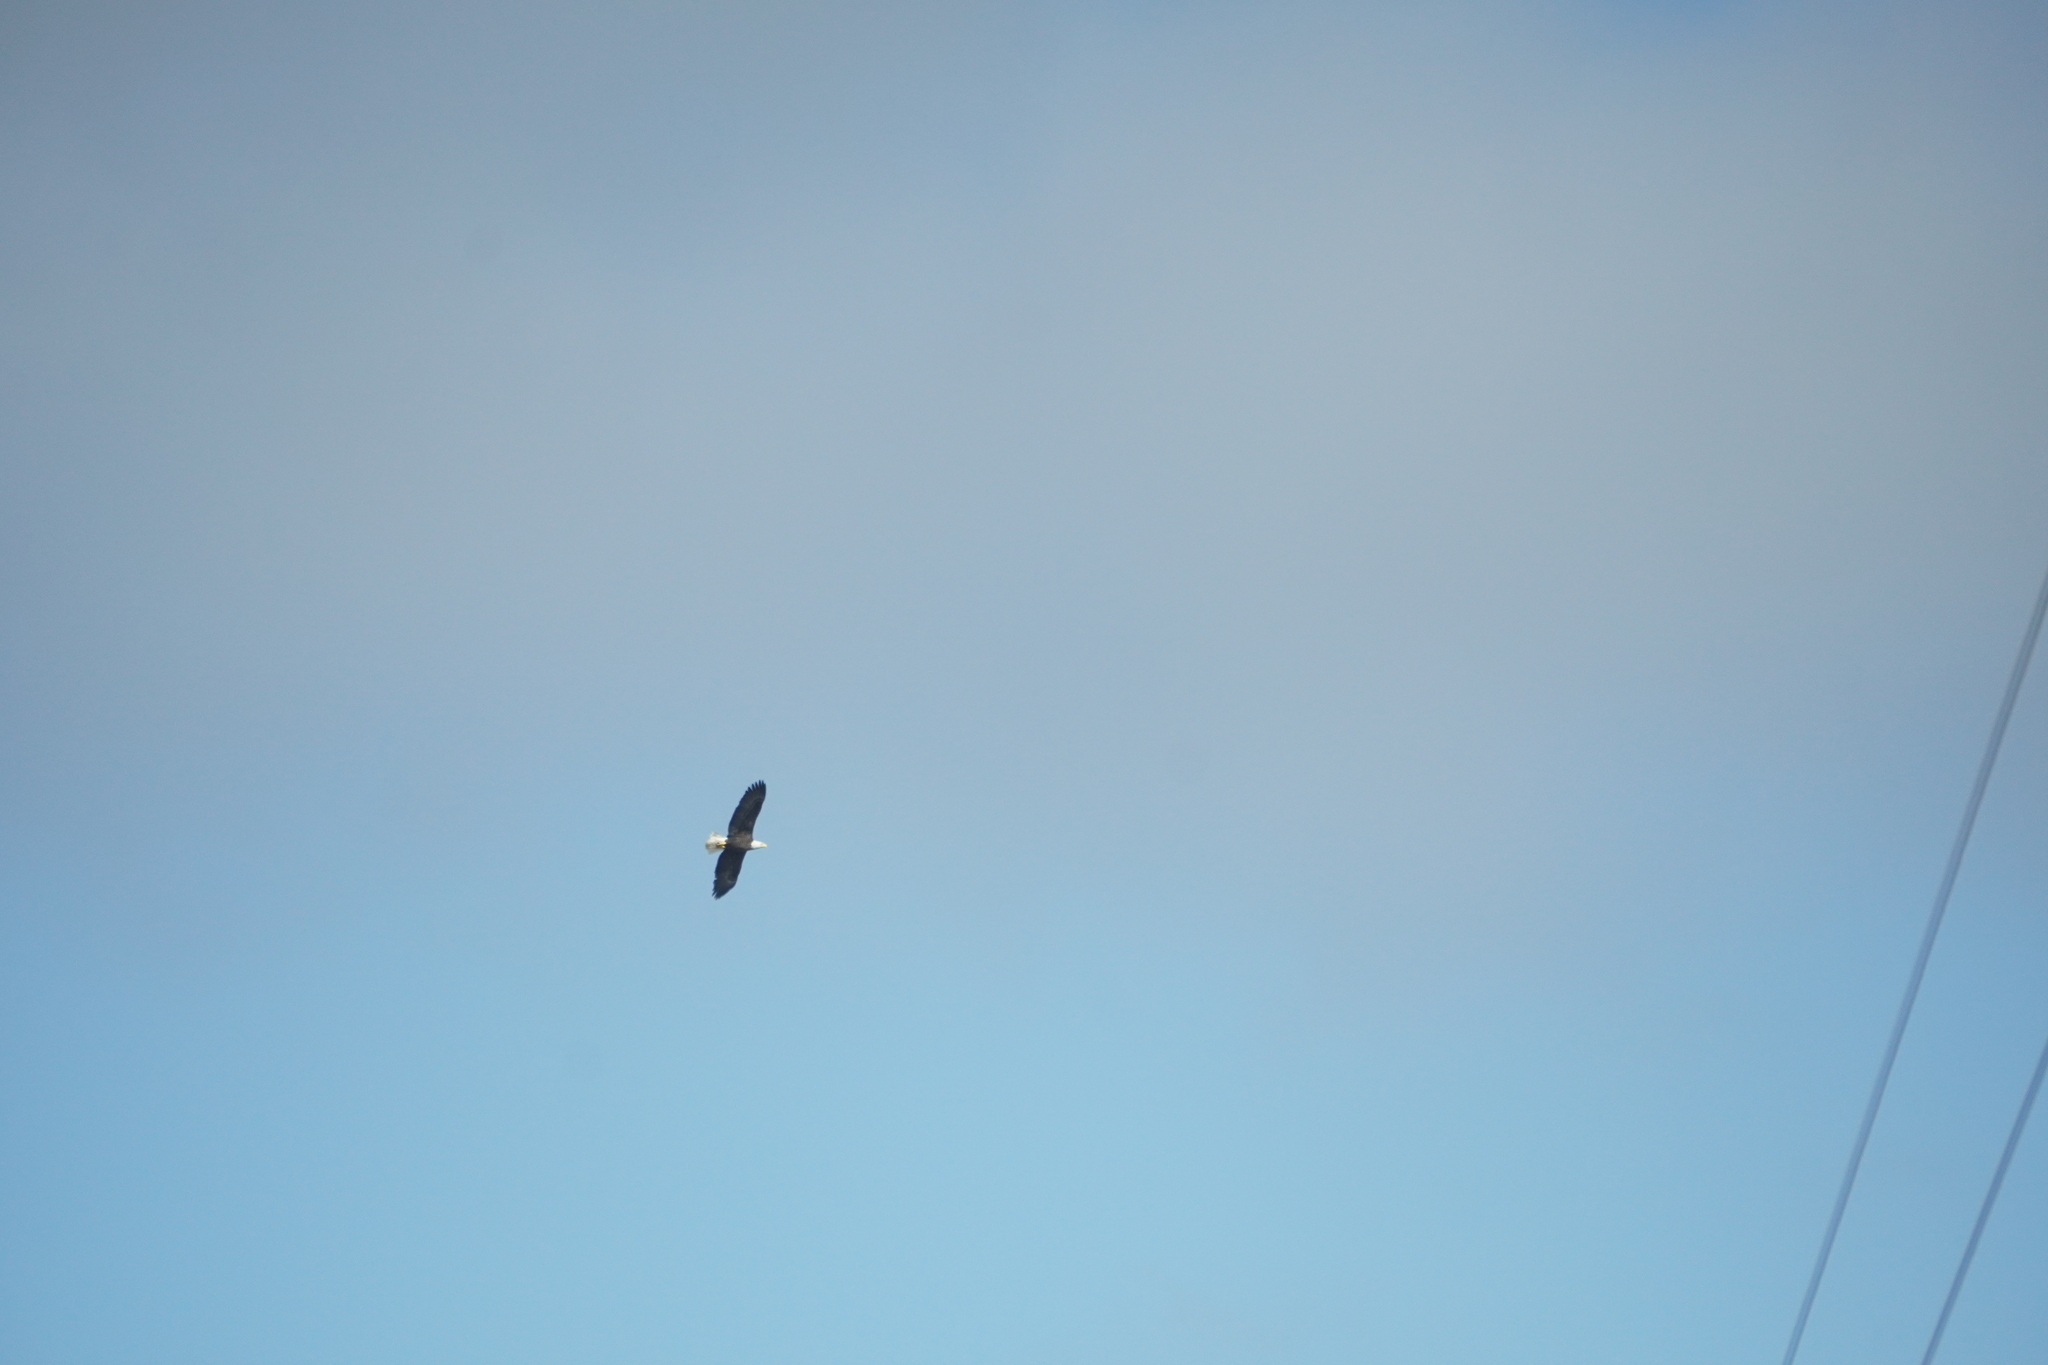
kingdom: Animalia
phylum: Chordata
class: Aves
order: Accipitriformes
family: Accipitridae
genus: Haliaeetus
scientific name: Haliaeetus leucocephalus
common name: Bald eagle
